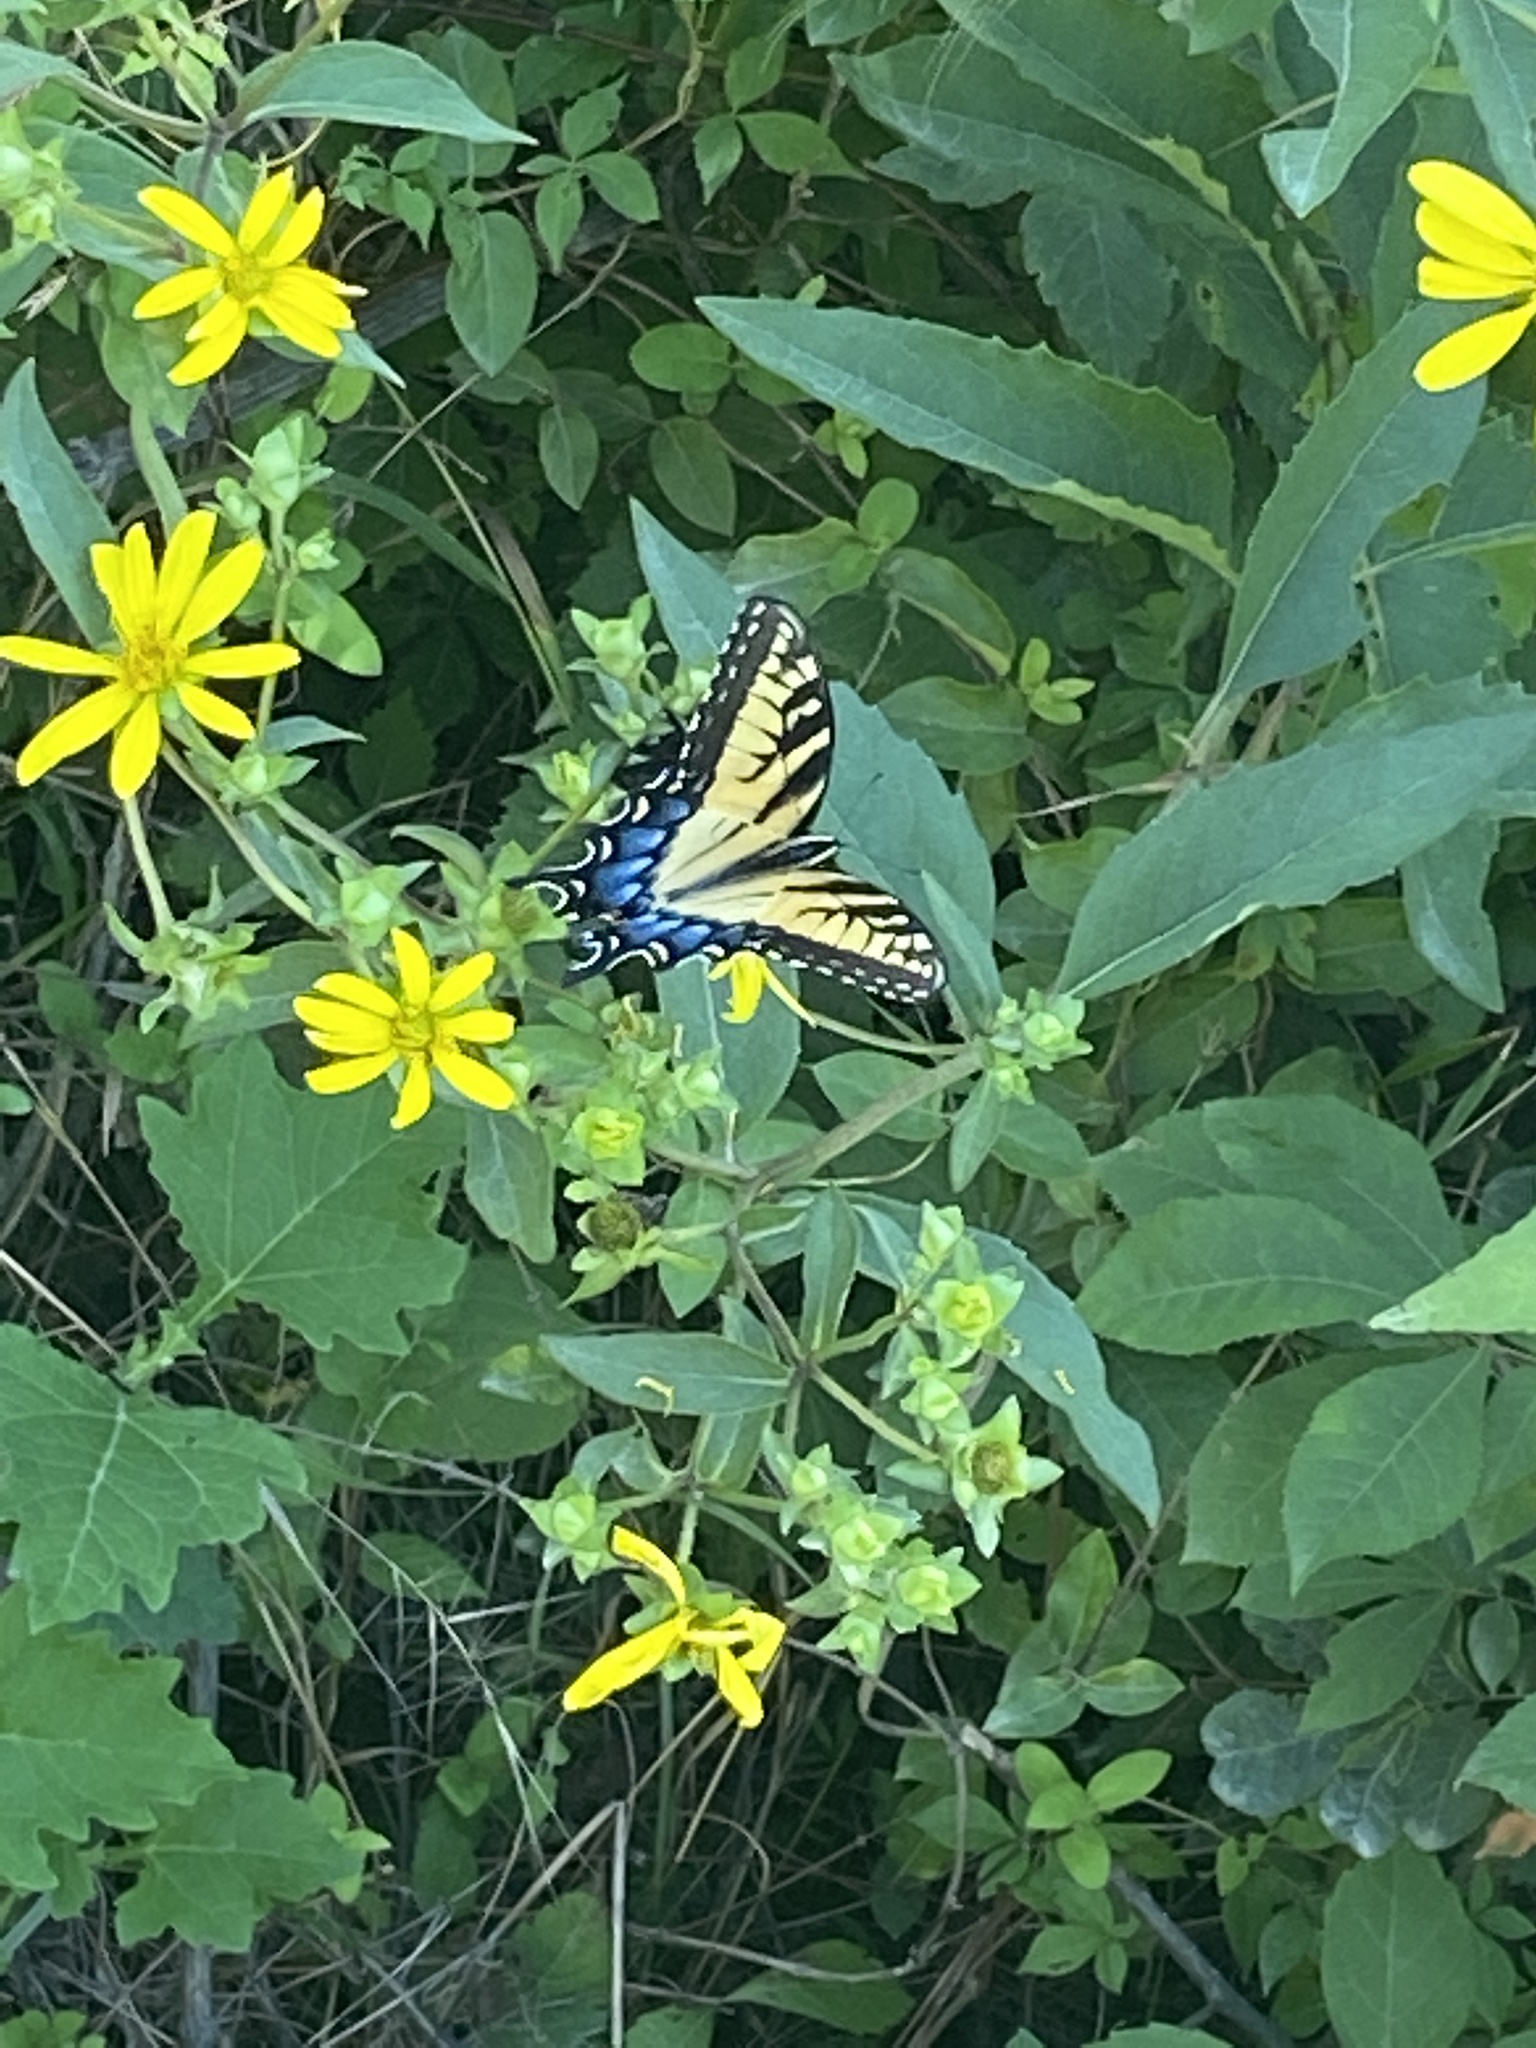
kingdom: Animalia
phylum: Arthropoda
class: Insecta
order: Lepidoptera
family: Papilionidae
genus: Papilio
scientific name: Papilio glaucus
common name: Tiger swallowtail
